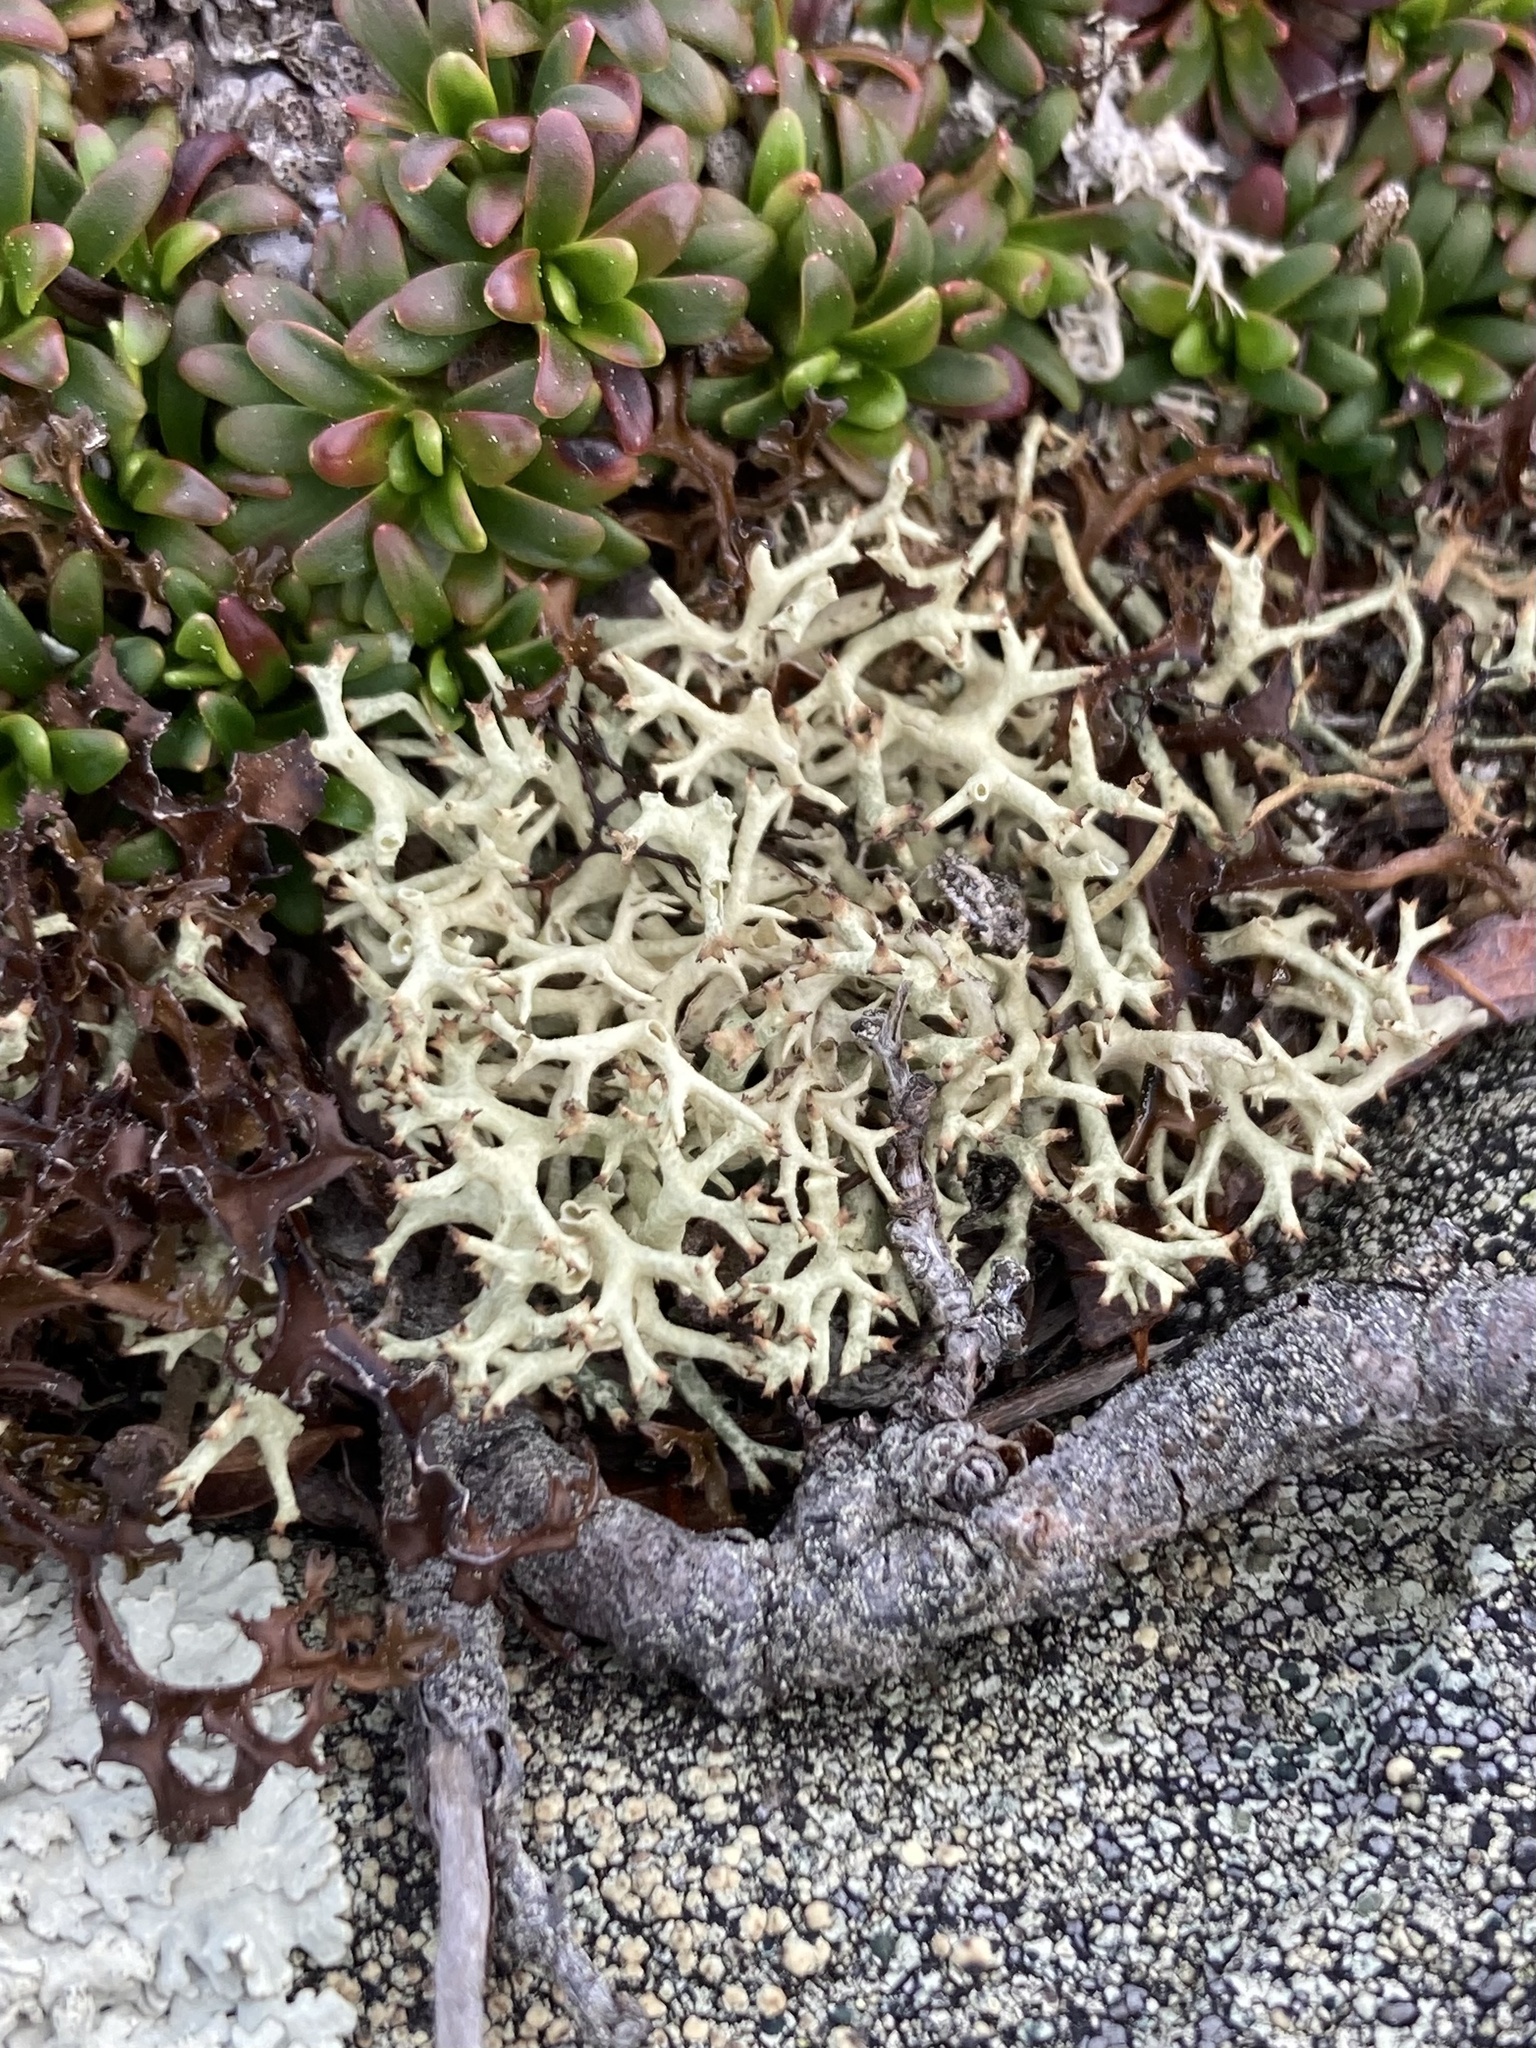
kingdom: Fungi
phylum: Ascomycota
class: Lecanoromycetes
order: Lecanorales
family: Cladoniaceae
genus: Cladonia
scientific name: Cladonia uncialis
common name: Thorn lichen
